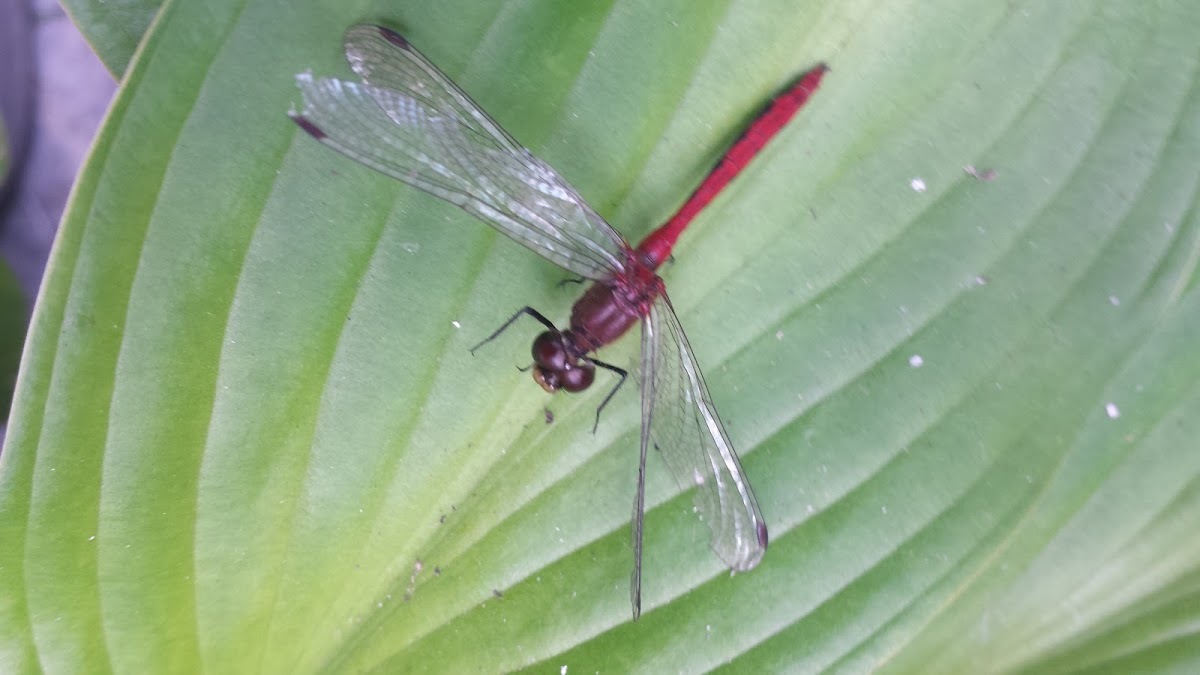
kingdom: Animalia
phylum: Arthropoda
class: Insecta
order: Odonata
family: Libellulidae
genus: Sympetrum
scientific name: Sympetrum
